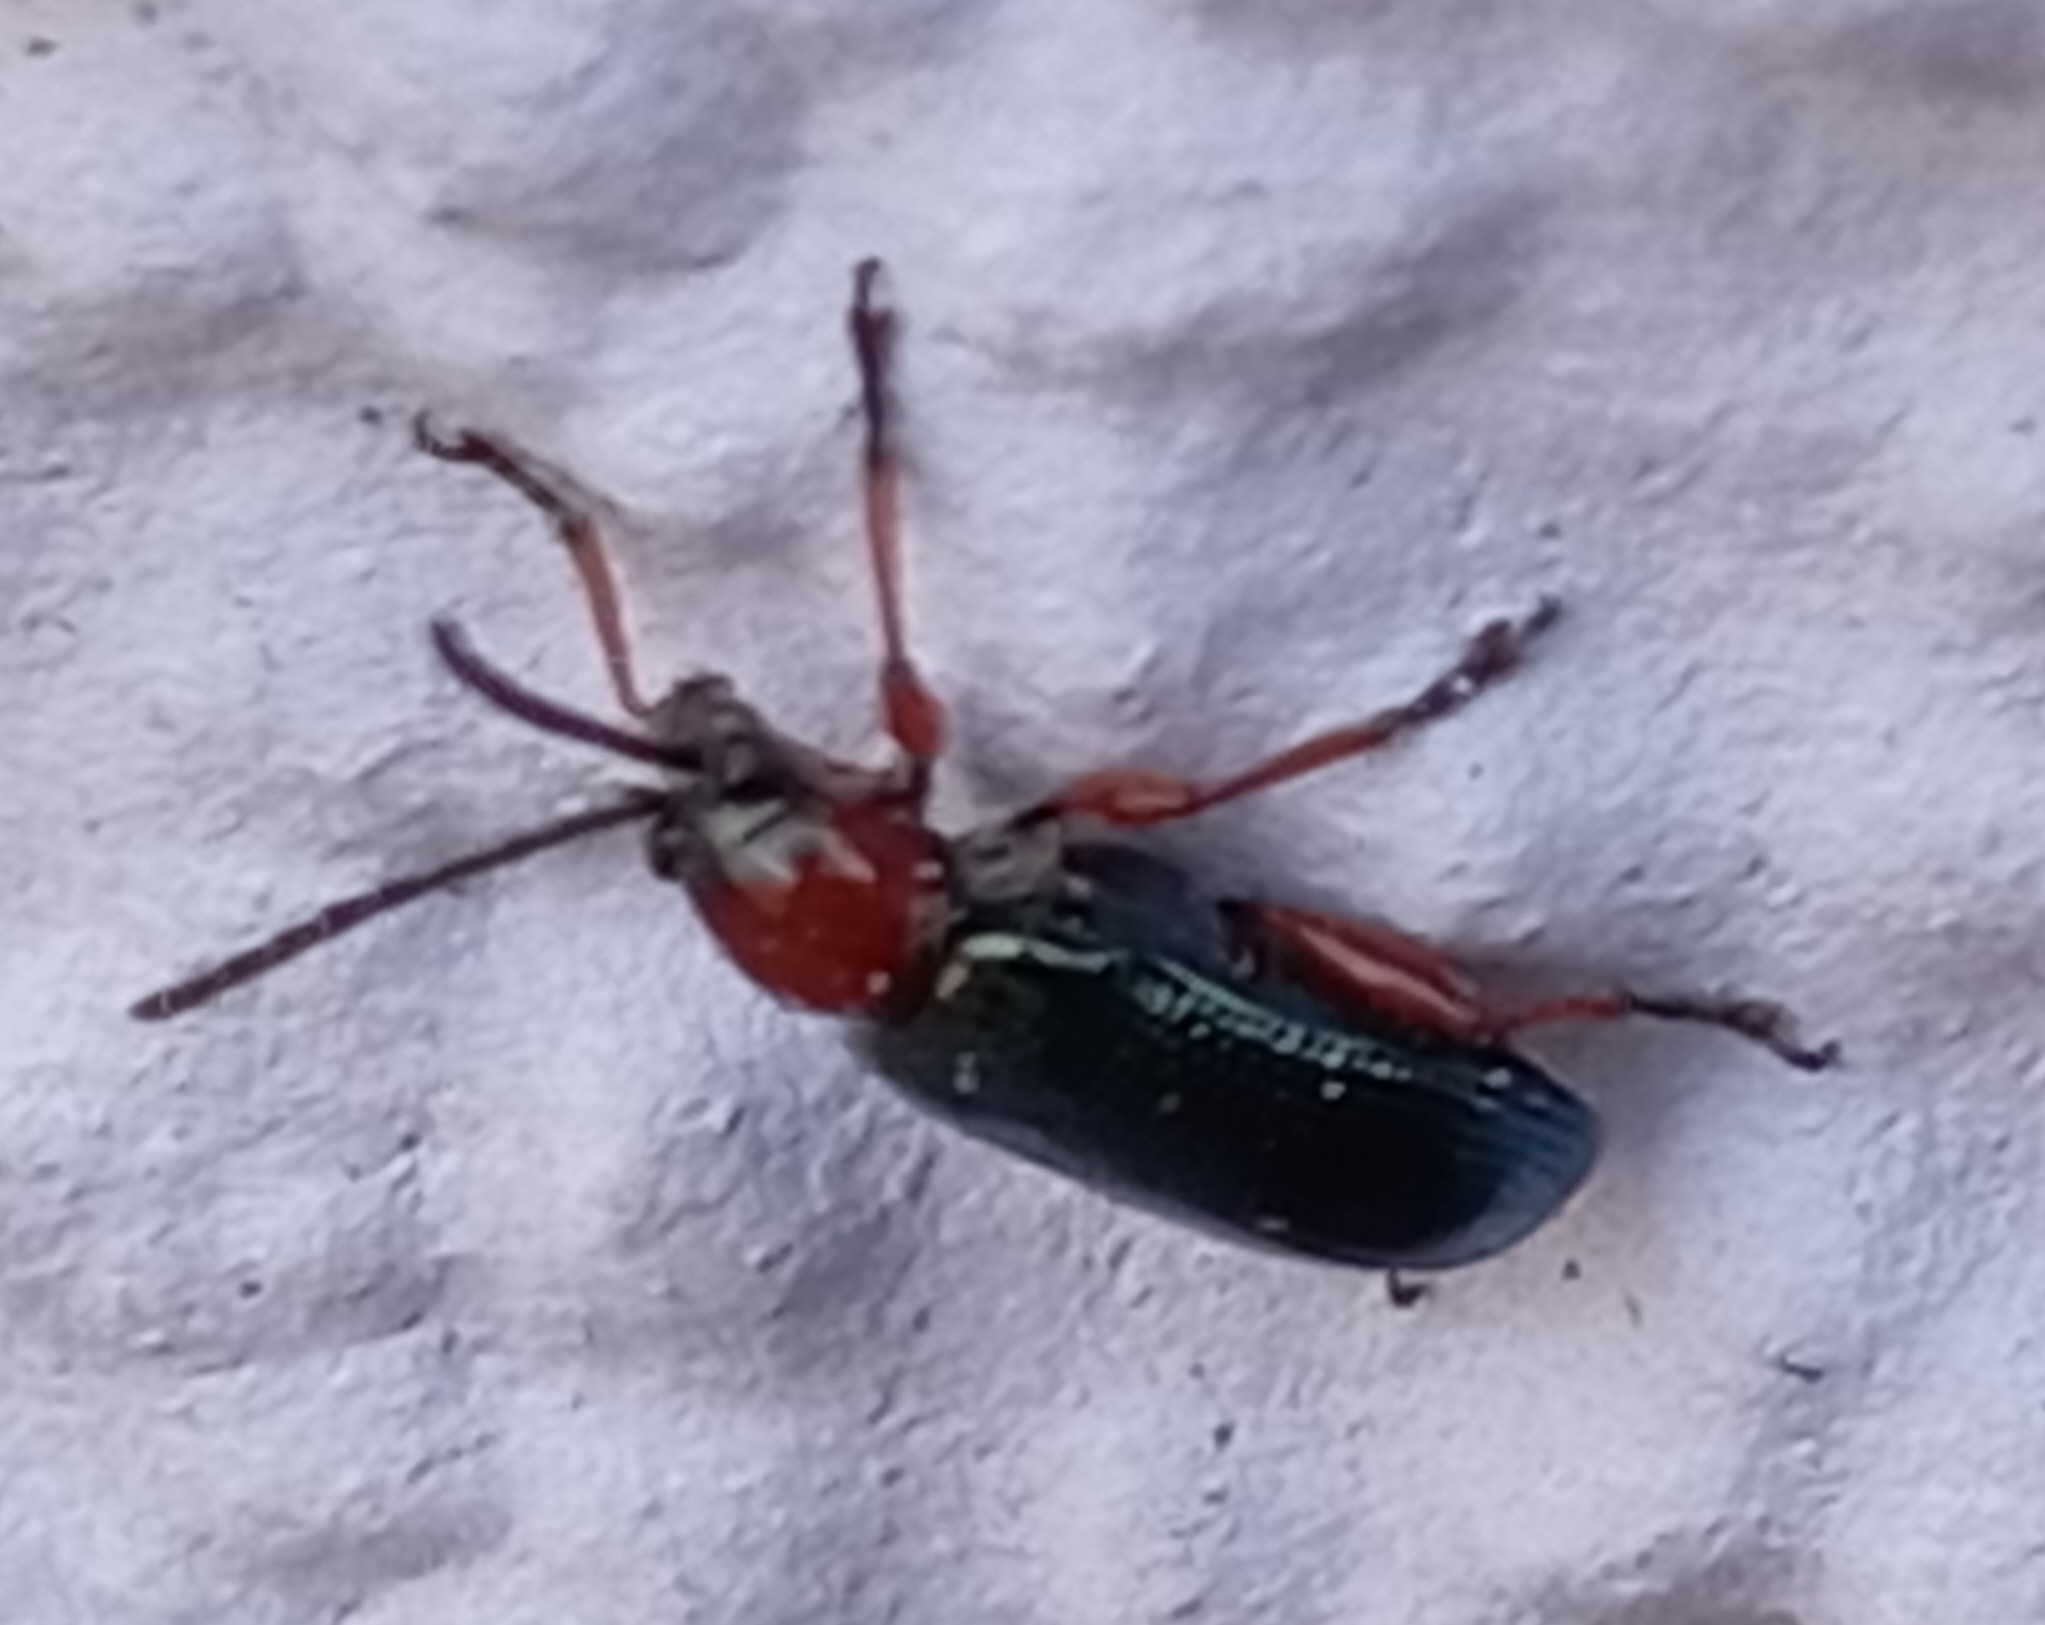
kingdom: Animalia
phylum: Arthropoda
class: Insecta
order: Coleoptera
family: Chrysomelidae
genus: Oulema
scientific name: Oulema
